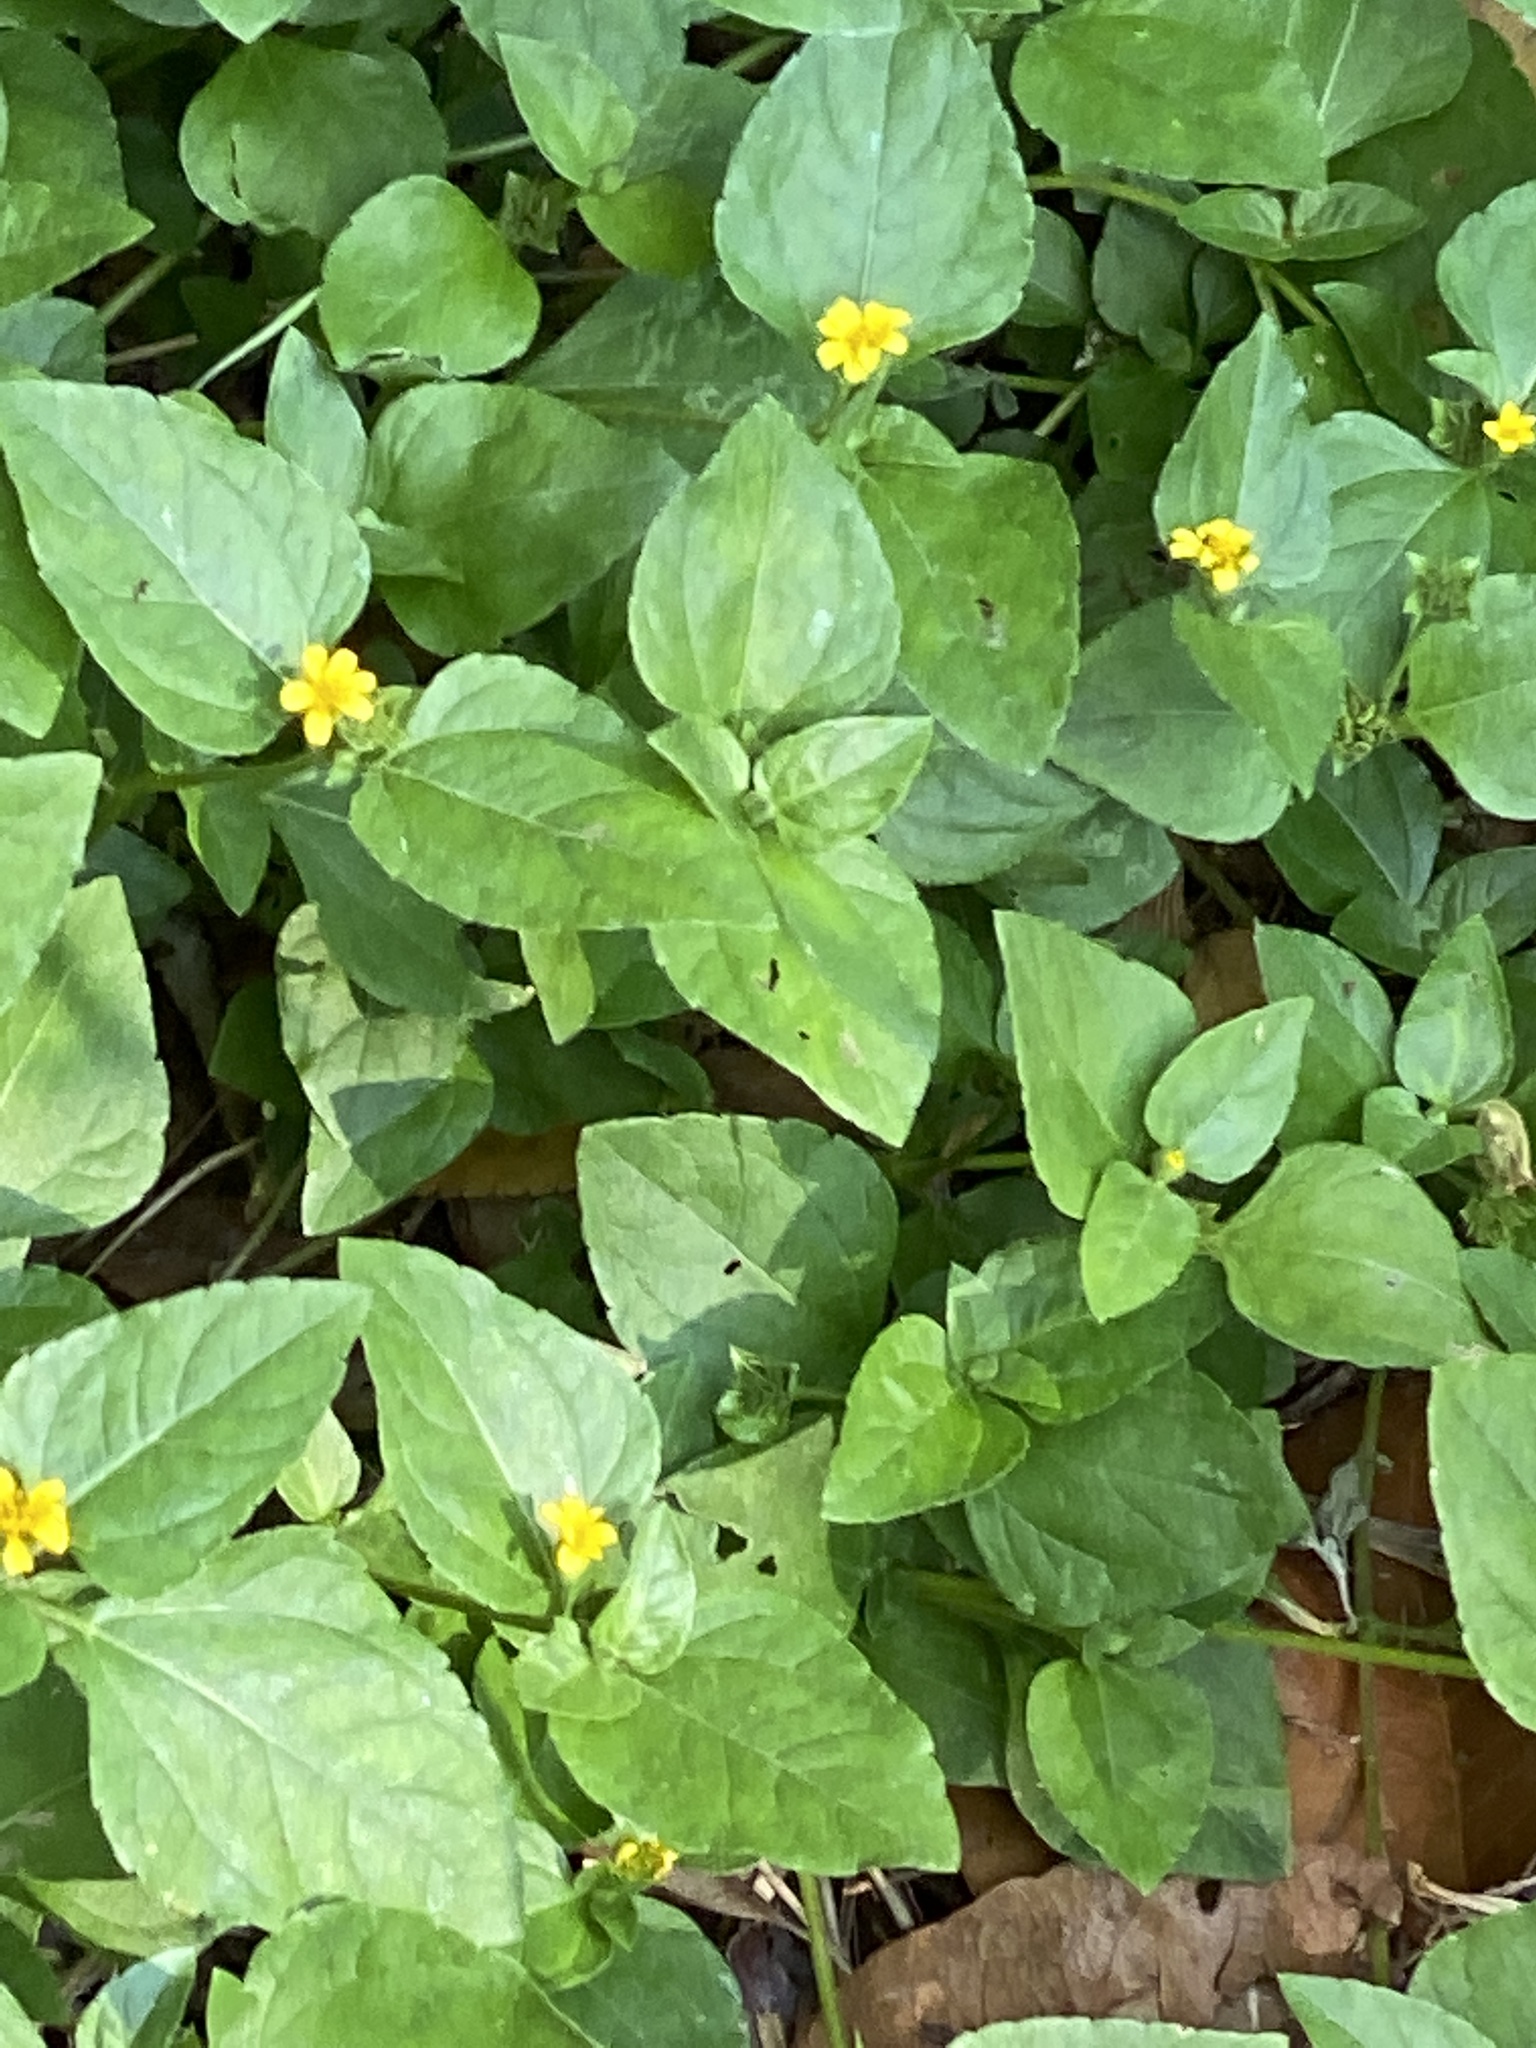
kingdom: Plantae
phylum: Tracheophyta
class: Magnoliopsida
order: Asterales
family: Asteraceae
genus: Calyptocarpus
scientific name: Calyptocarpus vialis
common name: Straggler daisy
